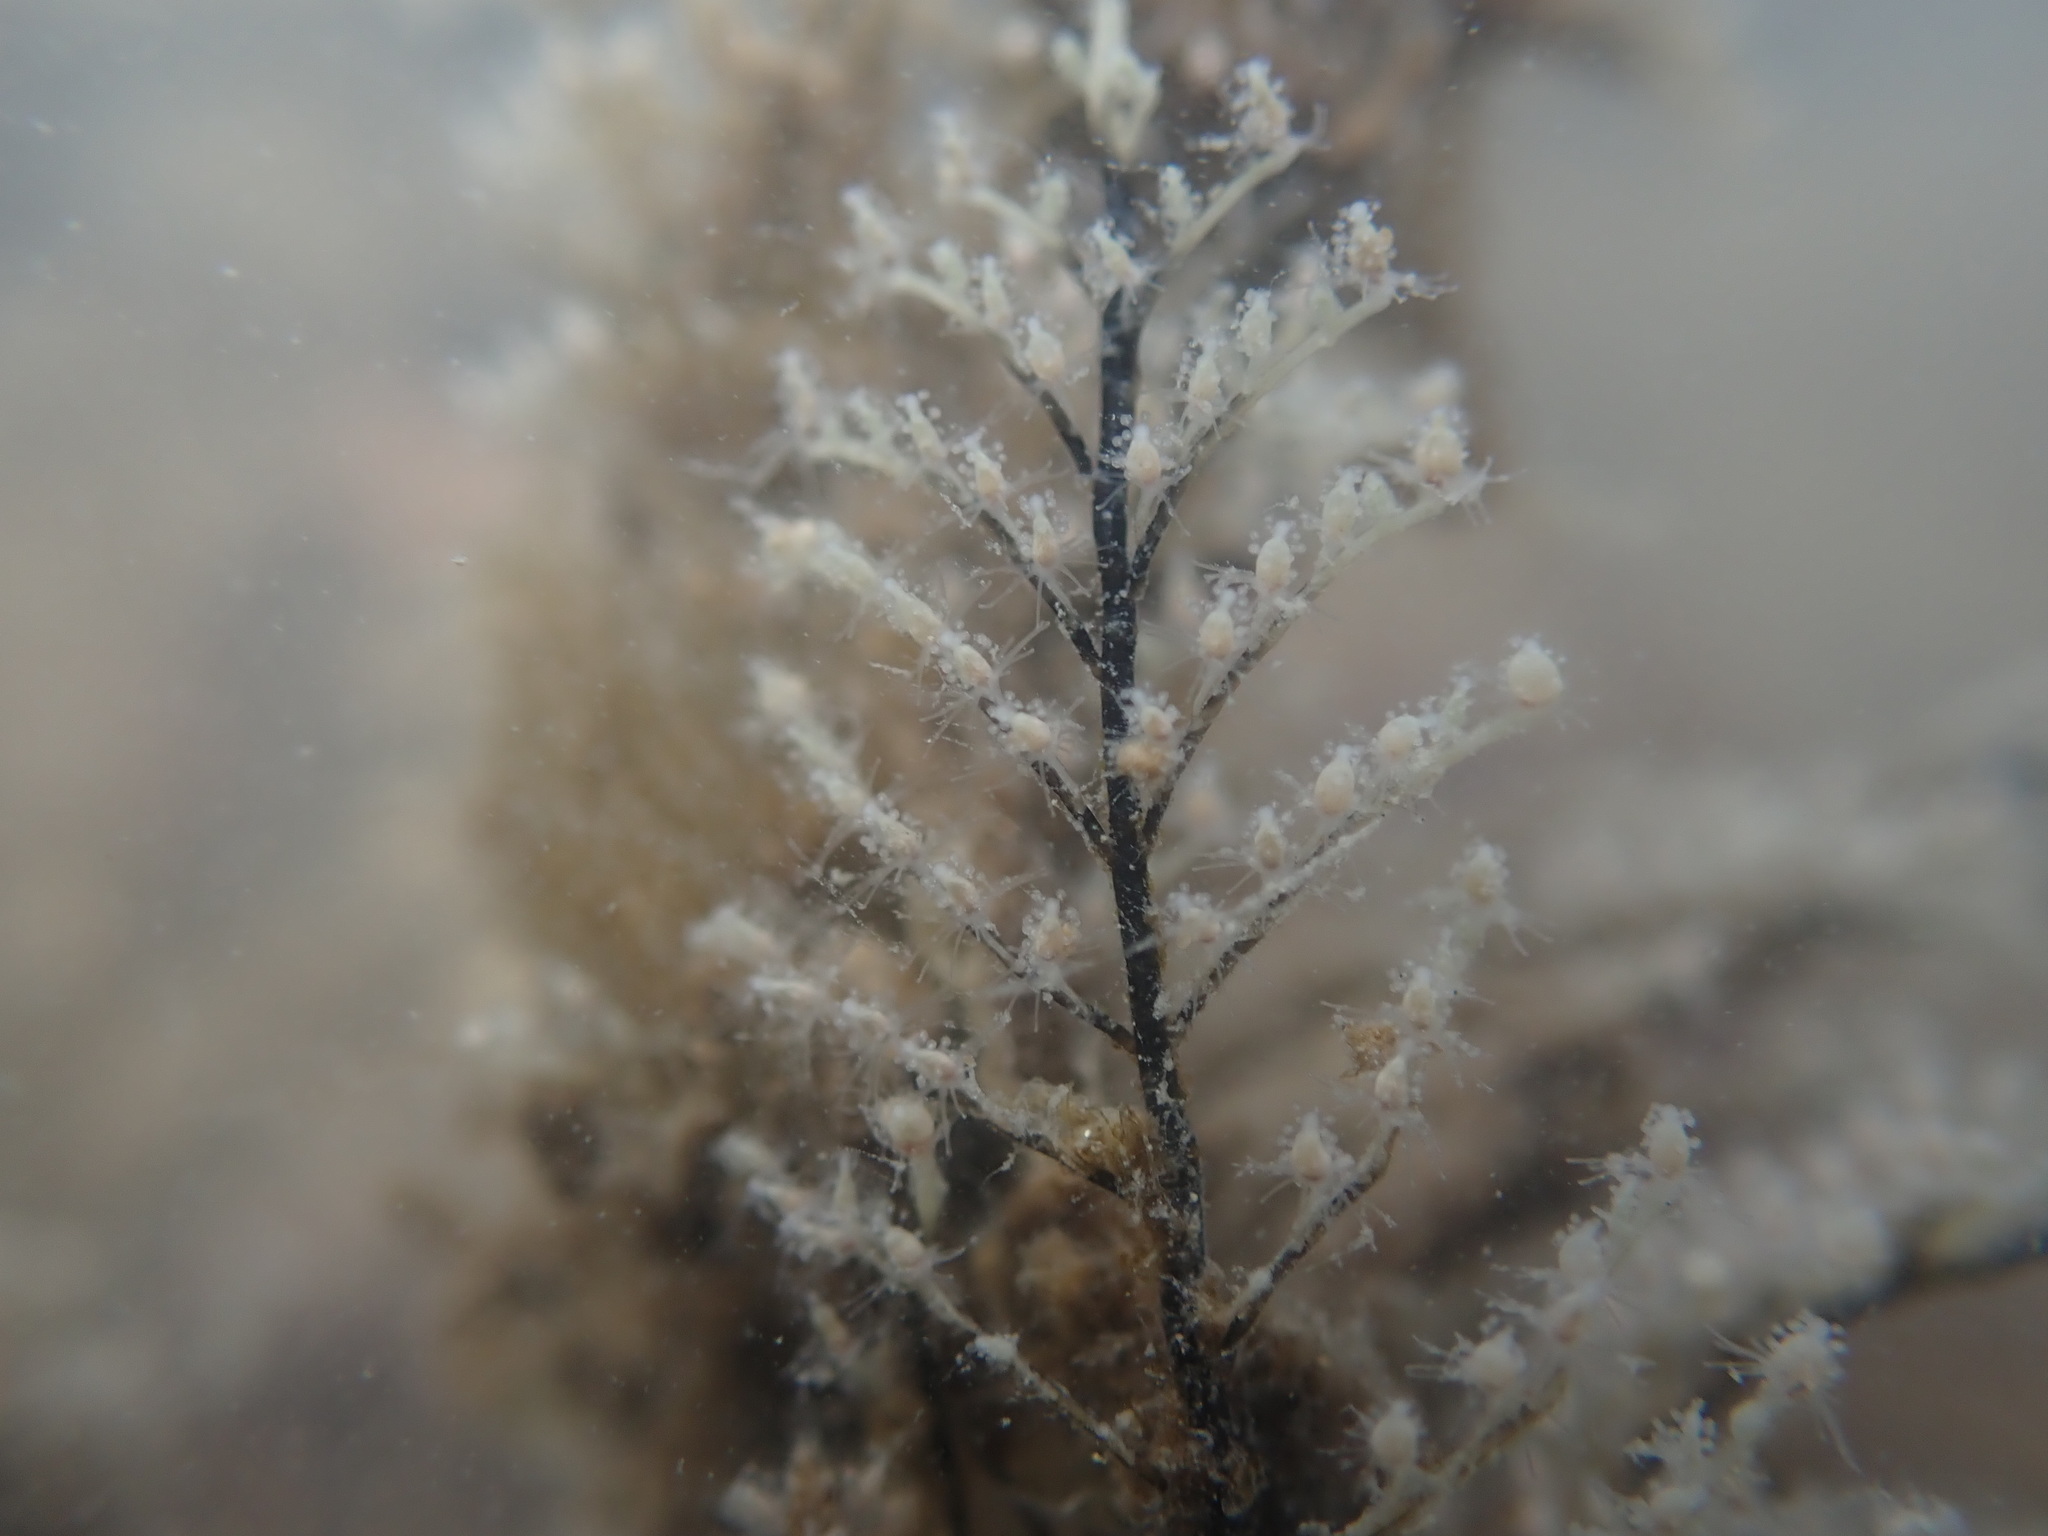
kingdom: Animalia
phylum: Cnidaria
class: Hydrozoa
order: Anthoathecata
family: Pennariidae
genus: Pennaria
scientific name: Pennaria disticha
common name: Feather hydroid
